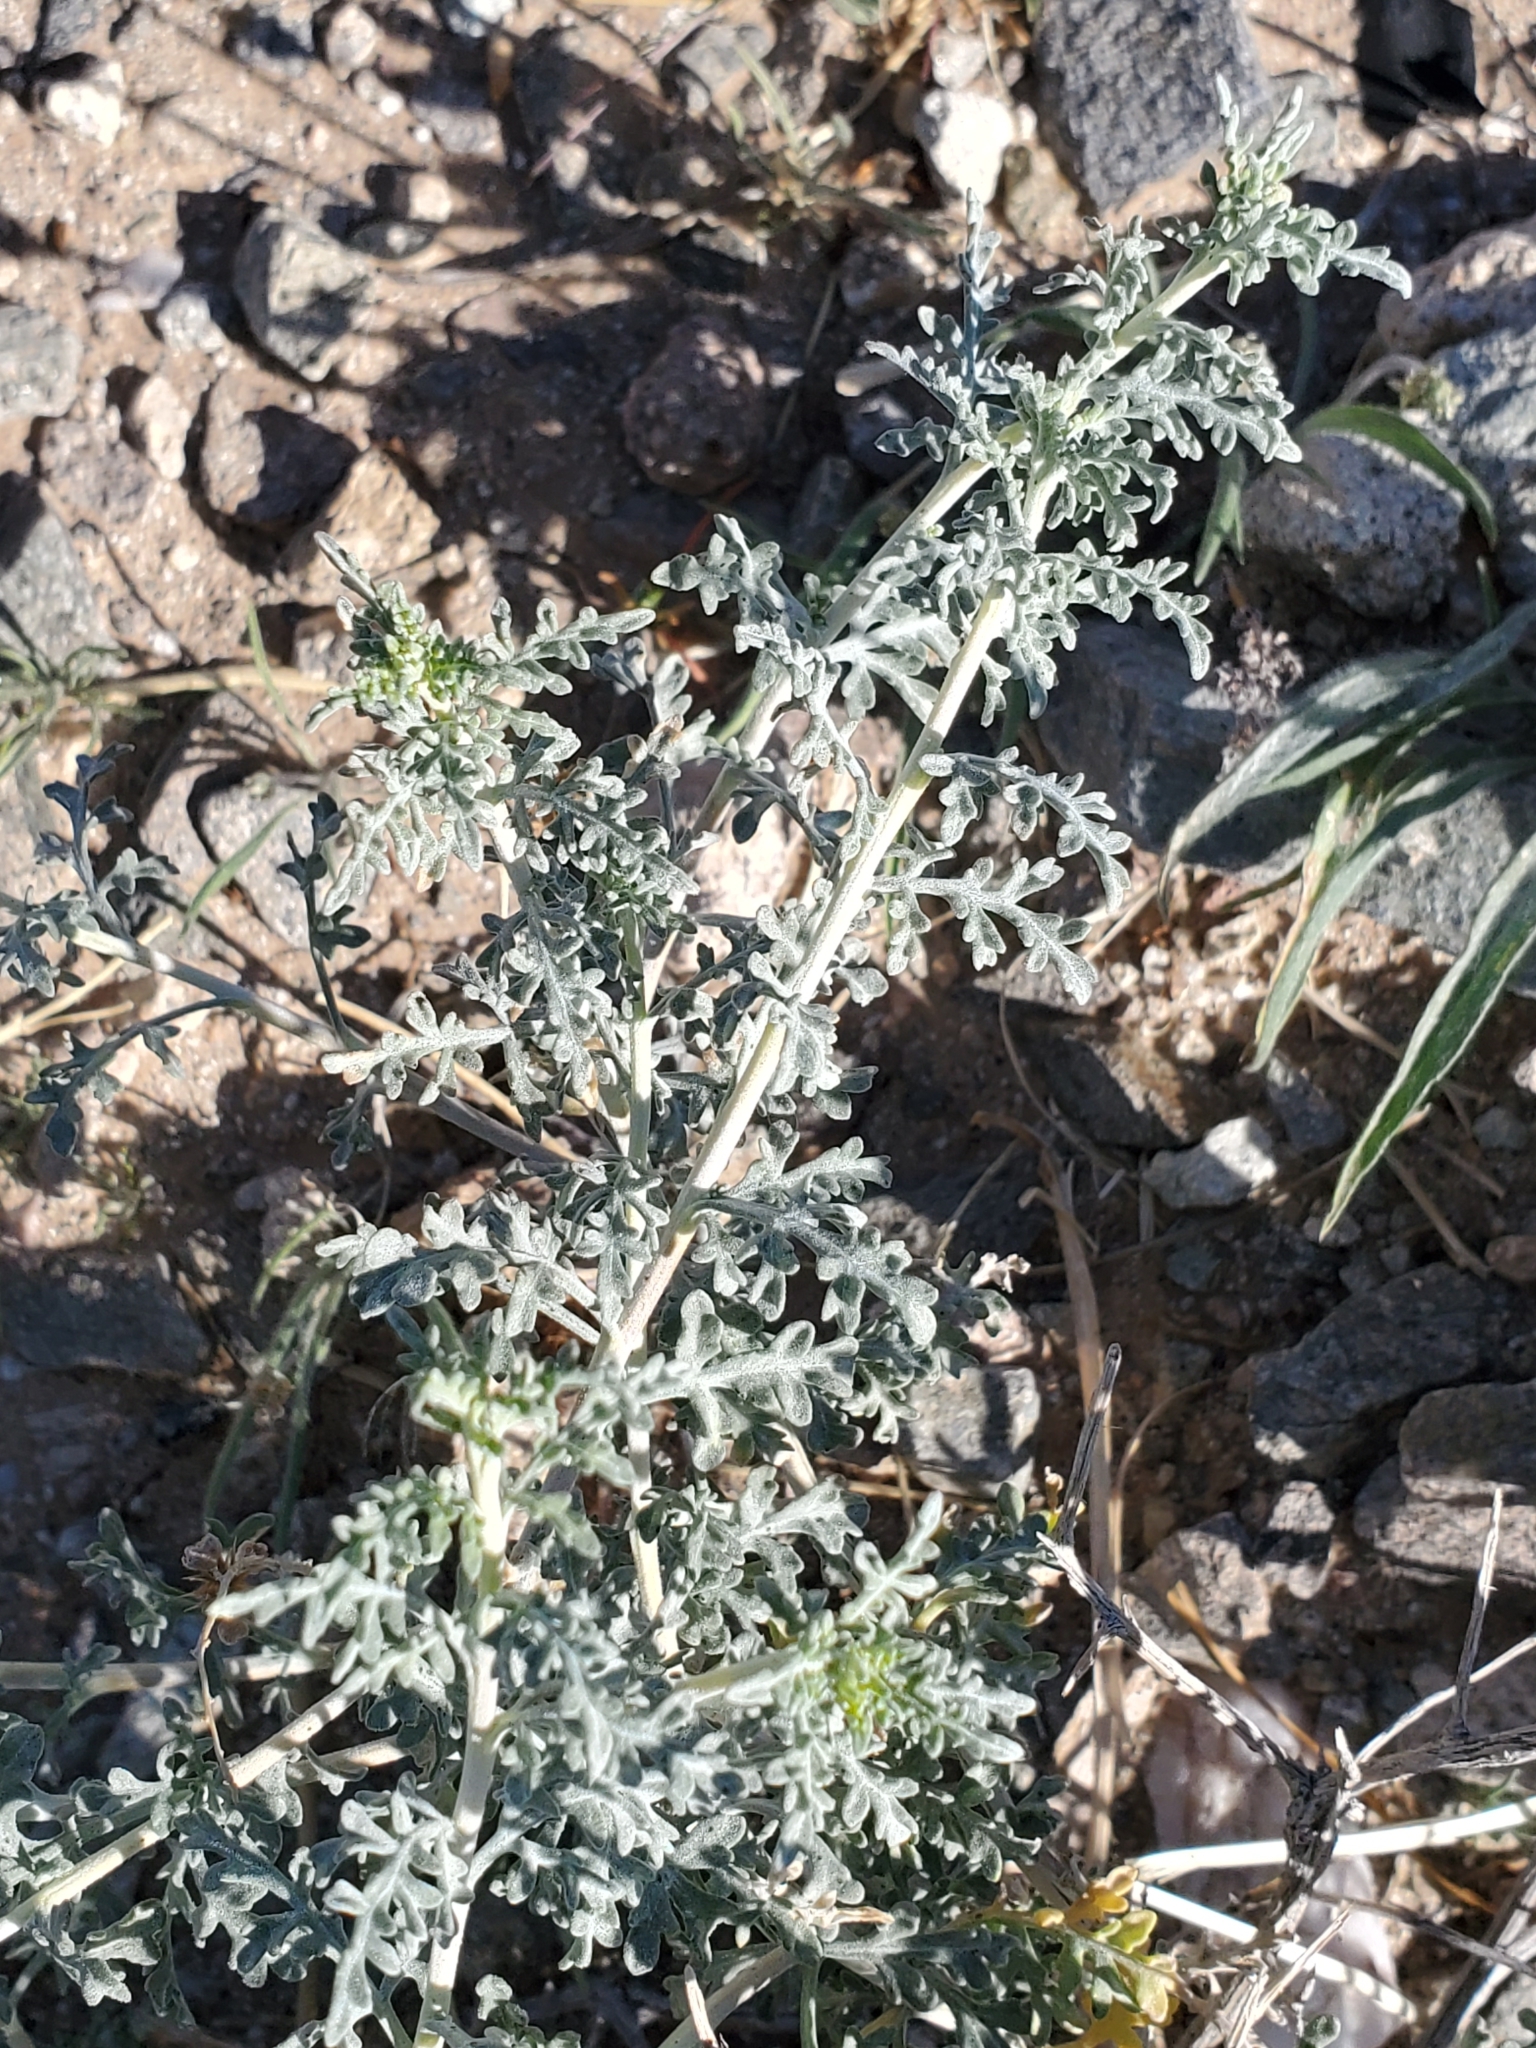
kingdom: Plantae
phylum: Tracheophyta
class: Magnoliopsida
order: Asterales
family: Asteraceae
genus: Ambrosia
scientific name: Ambrosia dumosa
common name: Bur-sage
